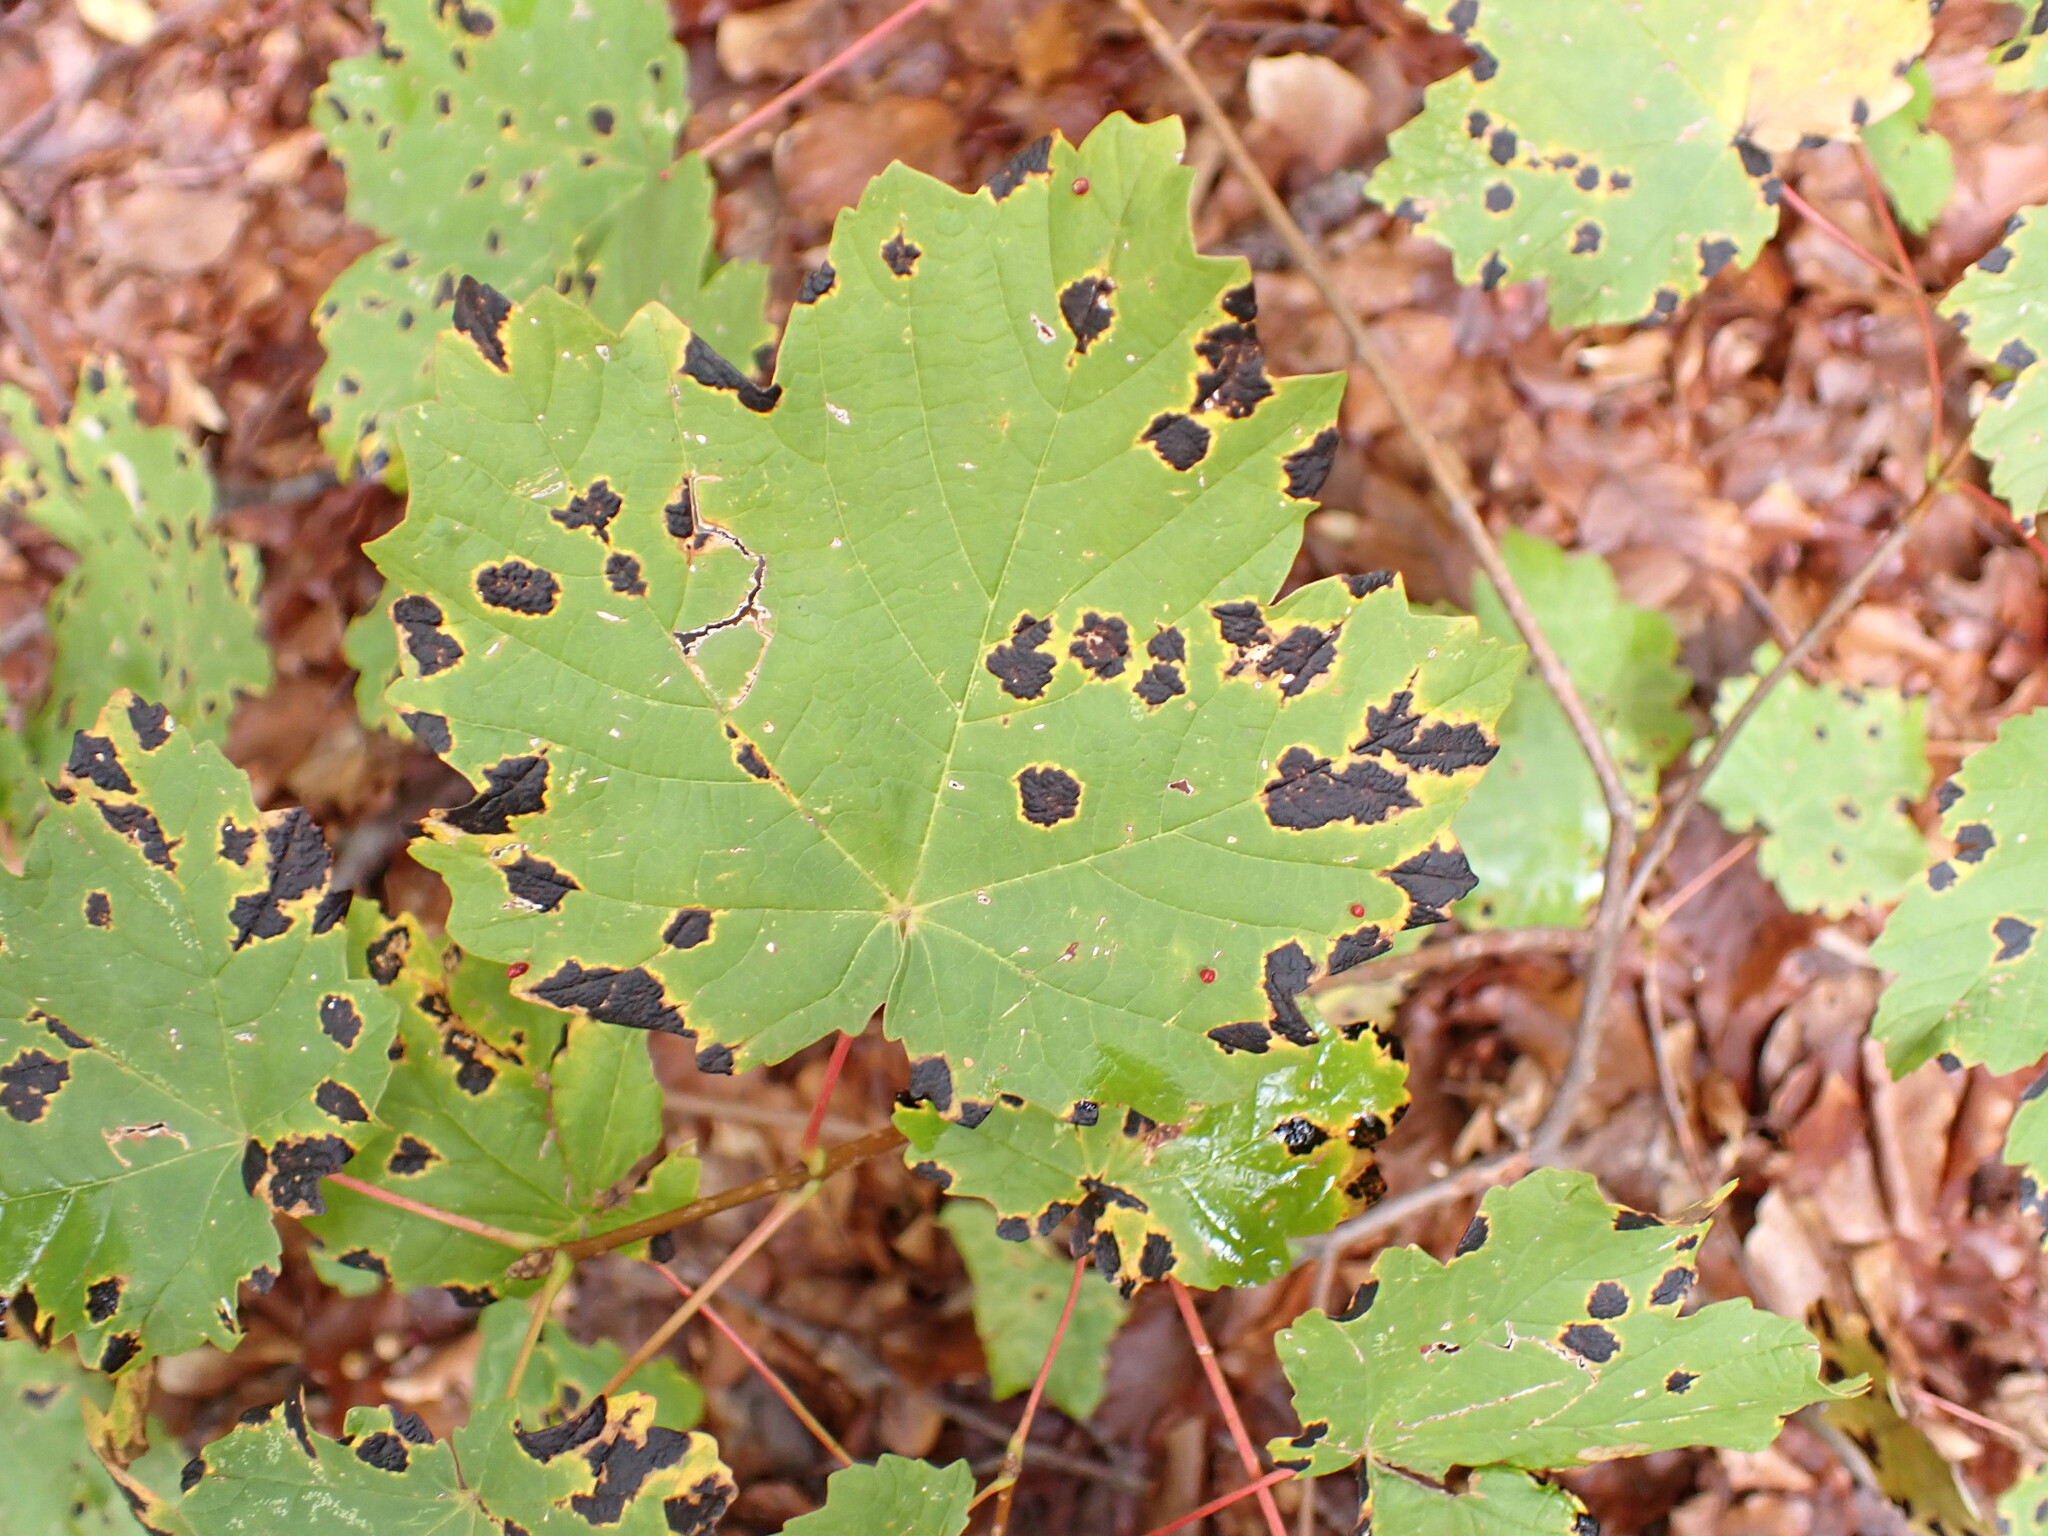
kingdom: Fungi
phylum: Ascomycota
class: Leotiomycetes
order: Rhytismatales
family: Rhytismataceae
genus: Rhytisma
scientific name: Rhytisma acerinum
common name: European tar spot
